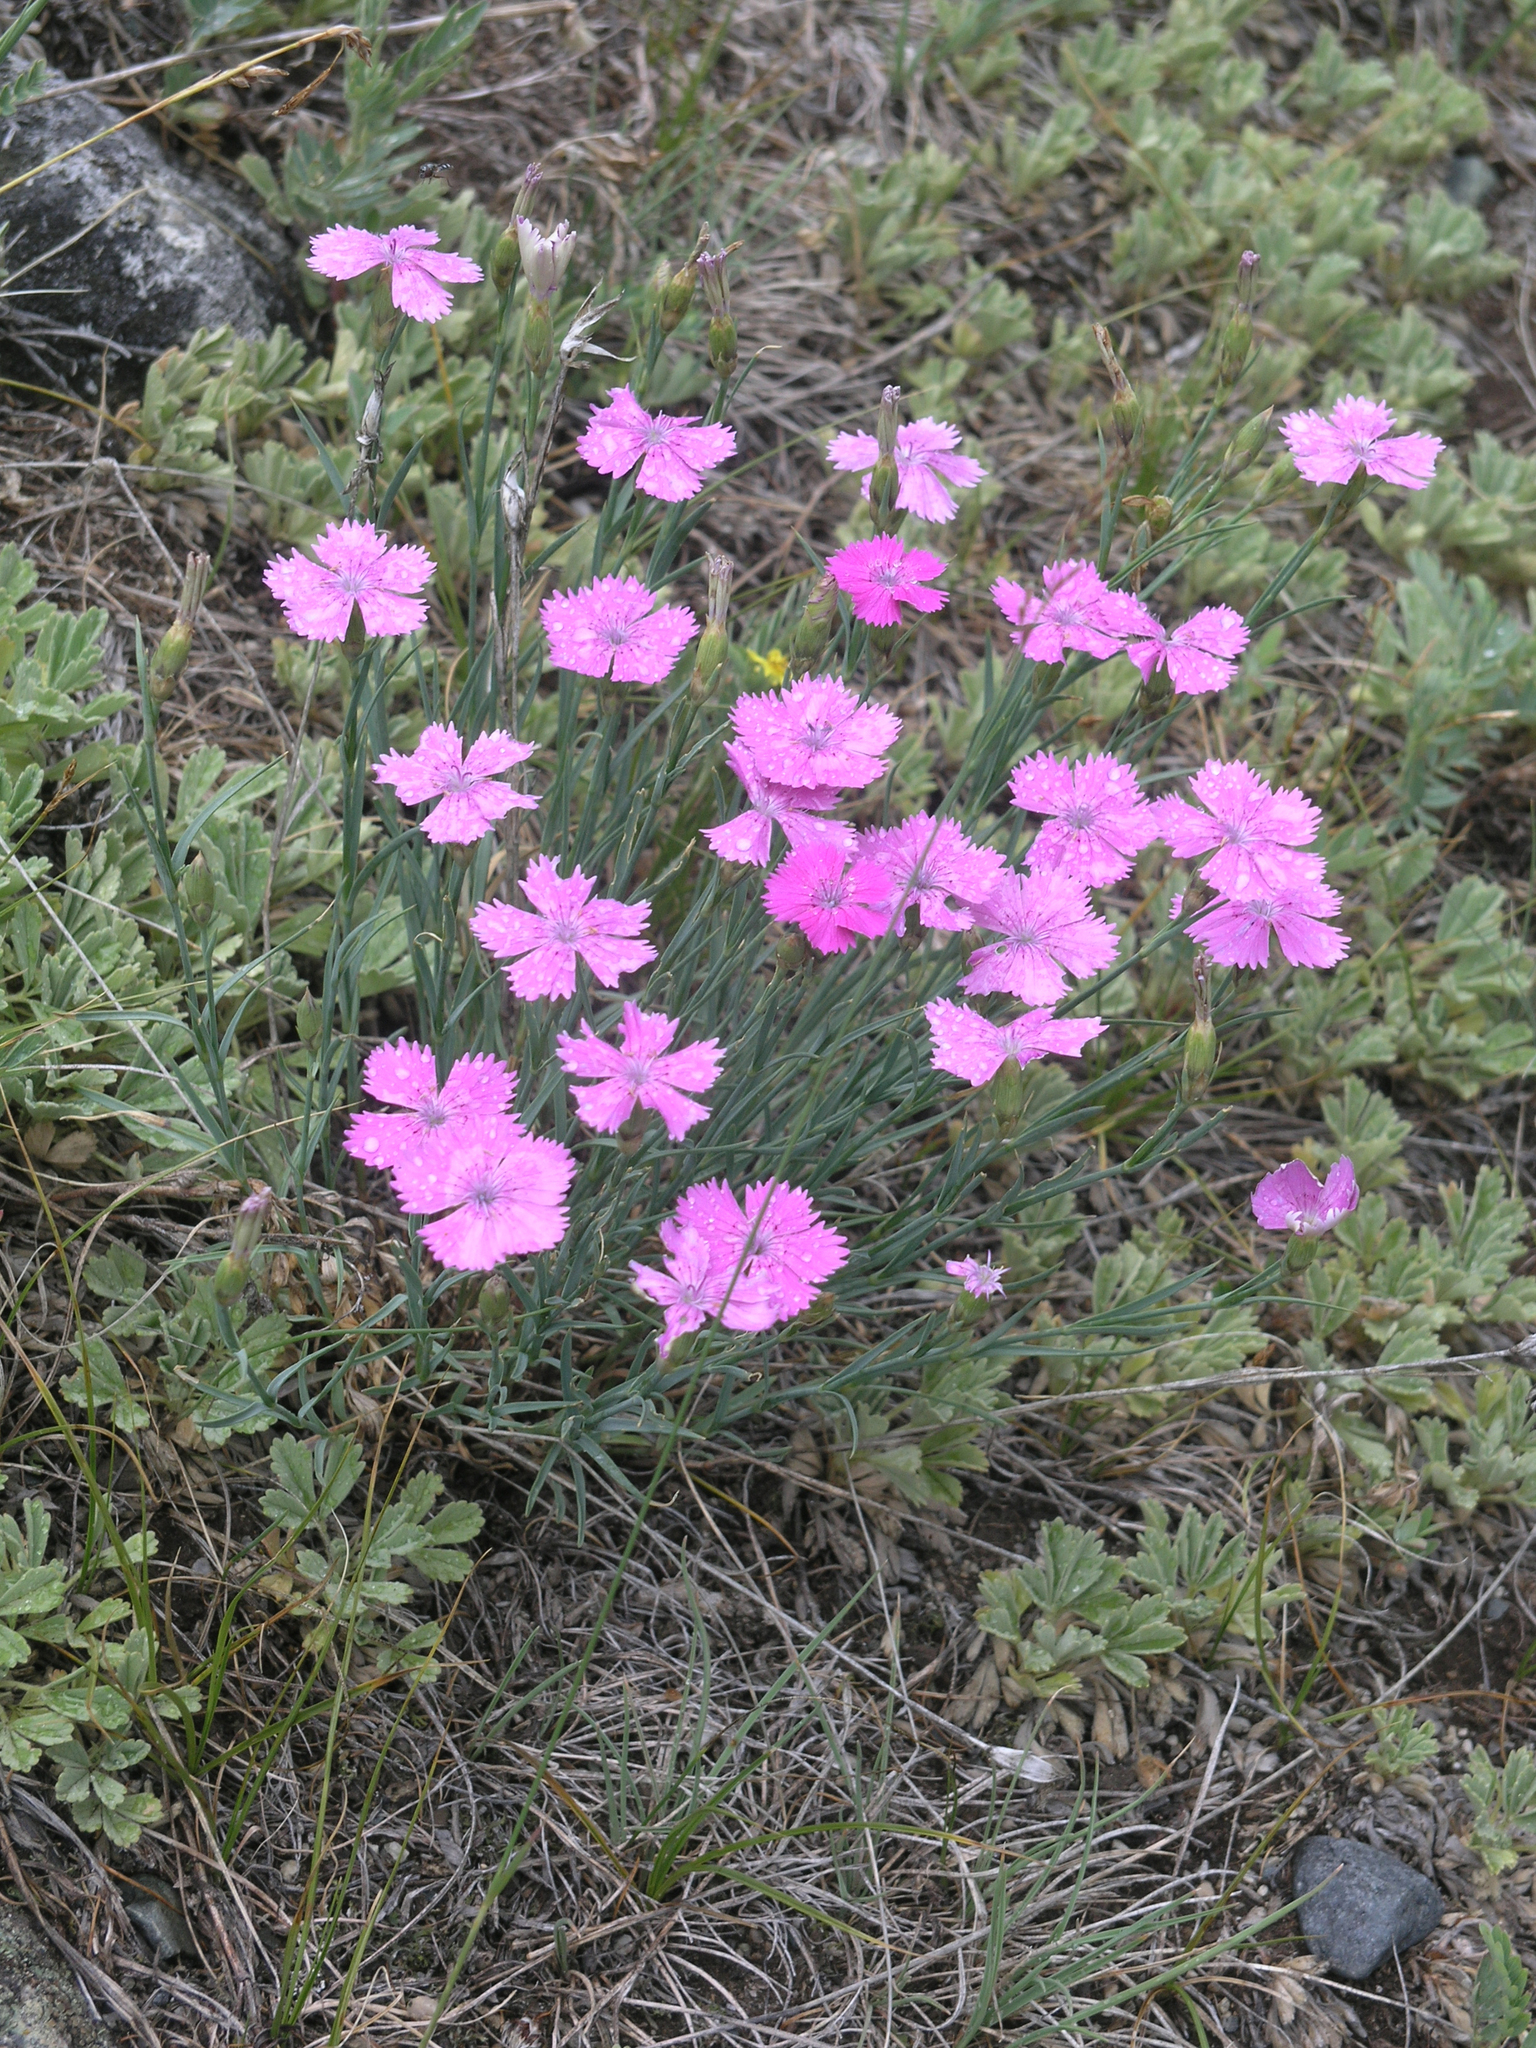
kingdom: Plantae
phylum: Tracheophyta
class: Magnoliopsida
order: Caryophyllales
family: Caryophyllaceae
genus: Dianthus
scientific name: Dianthus chinensis
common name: Rainbow pink
